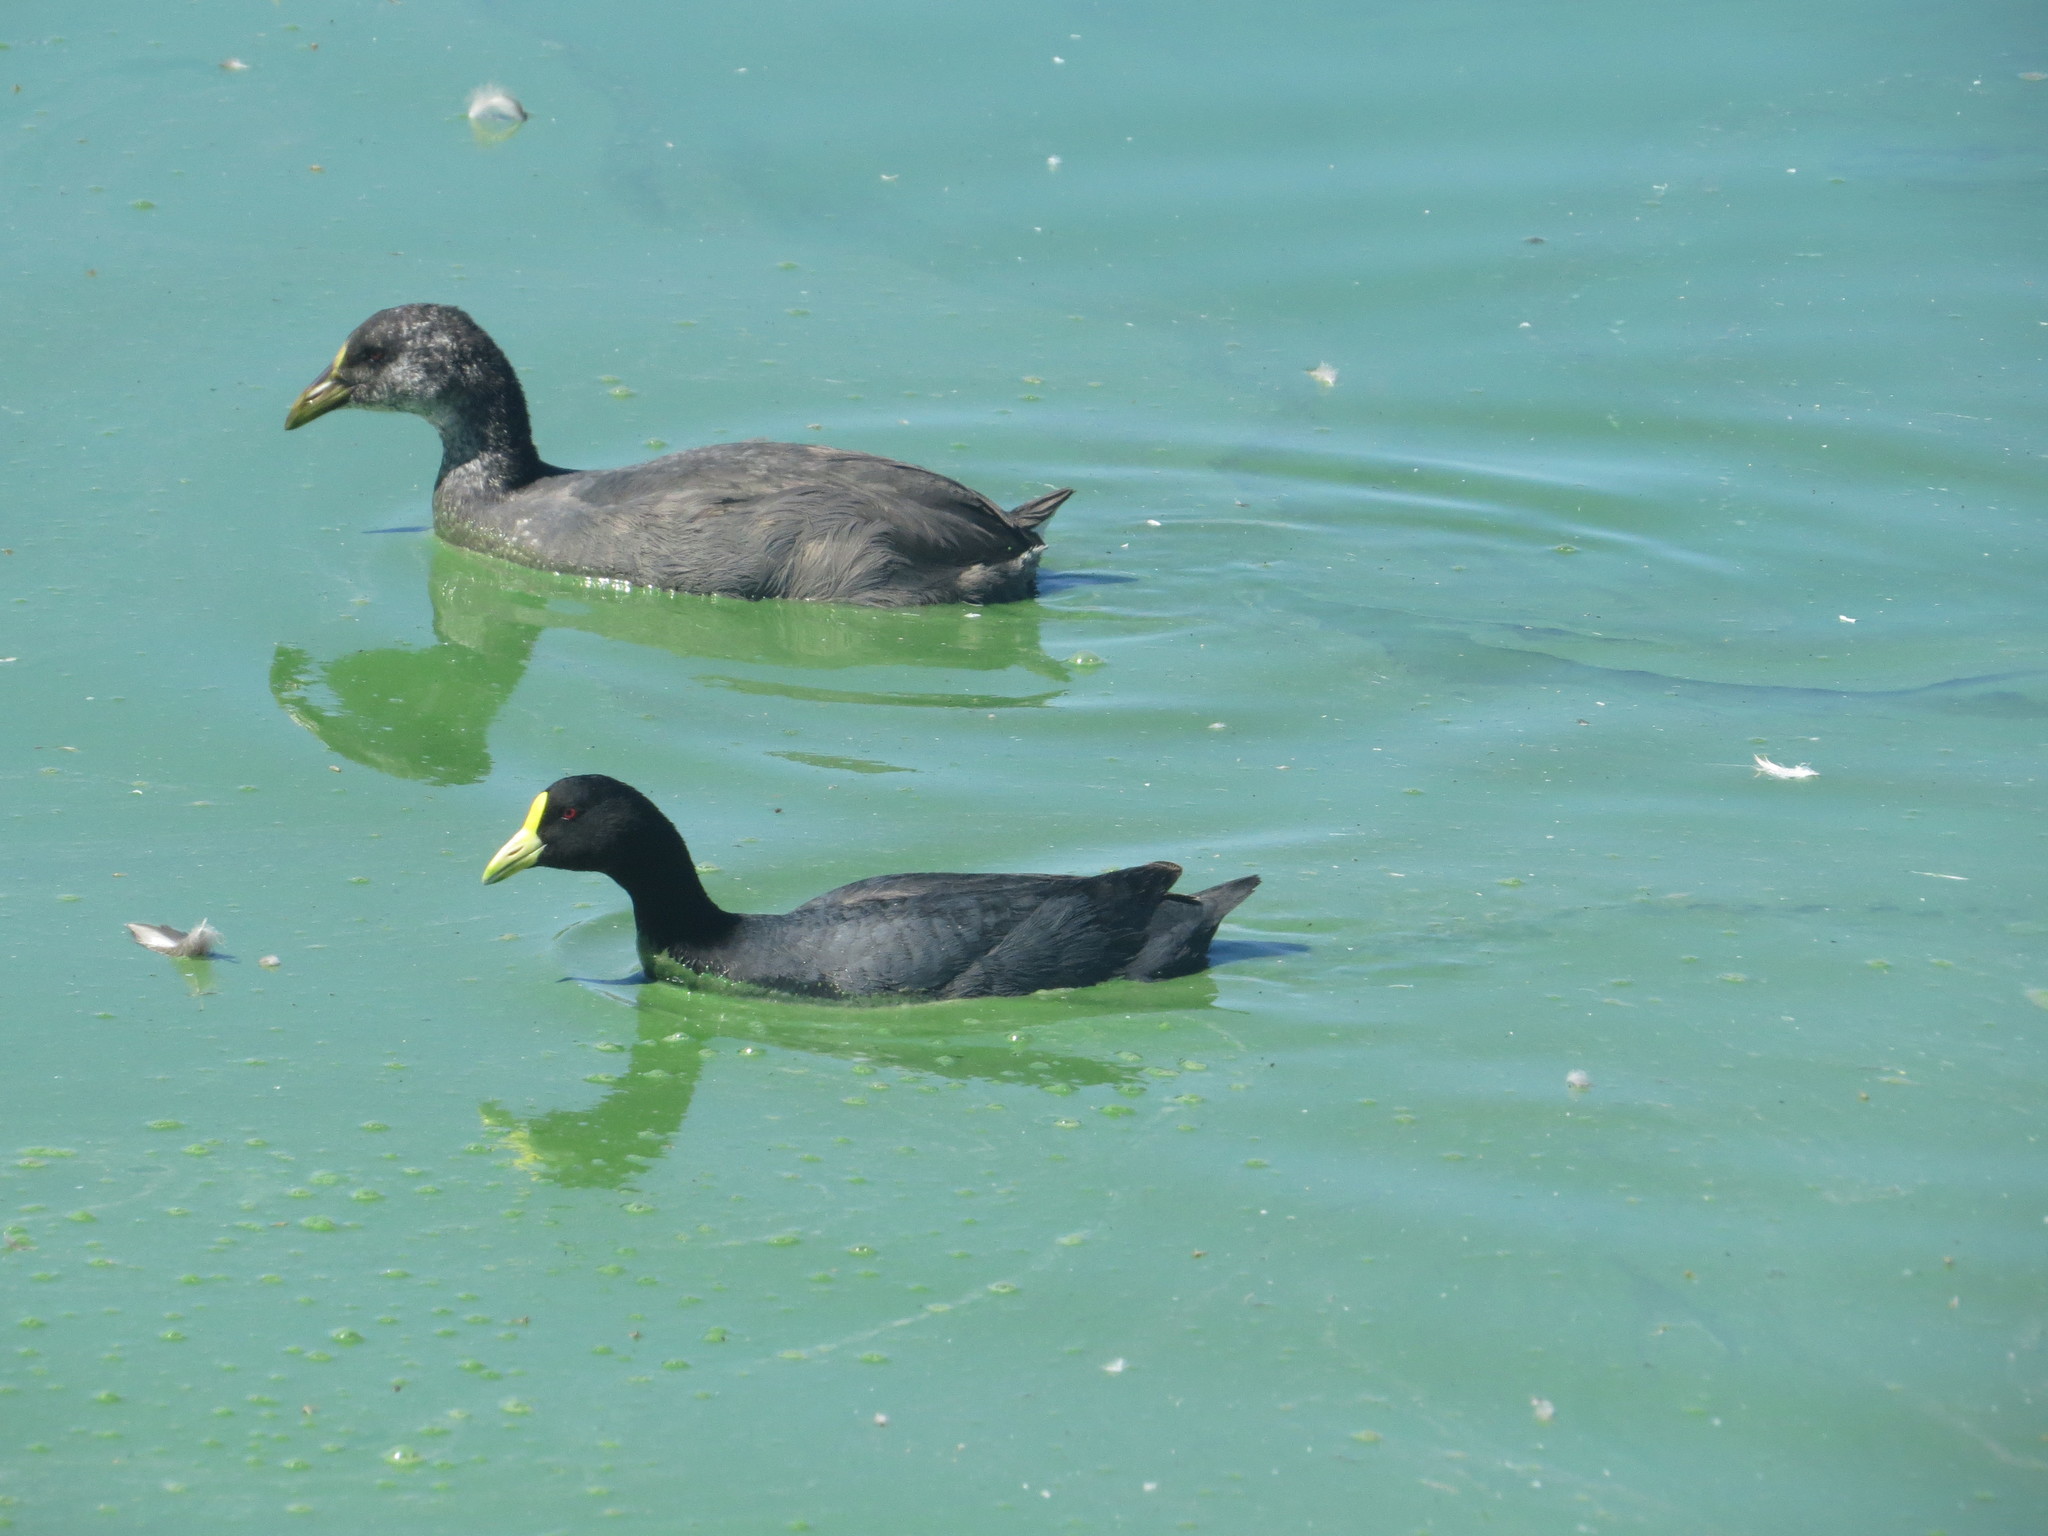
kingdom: Animalia
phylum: Chordata
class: Aves
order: Gruiformes
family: Rallidae
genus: Fulica
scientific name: Fulica armillata
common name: Red-gartered coot
